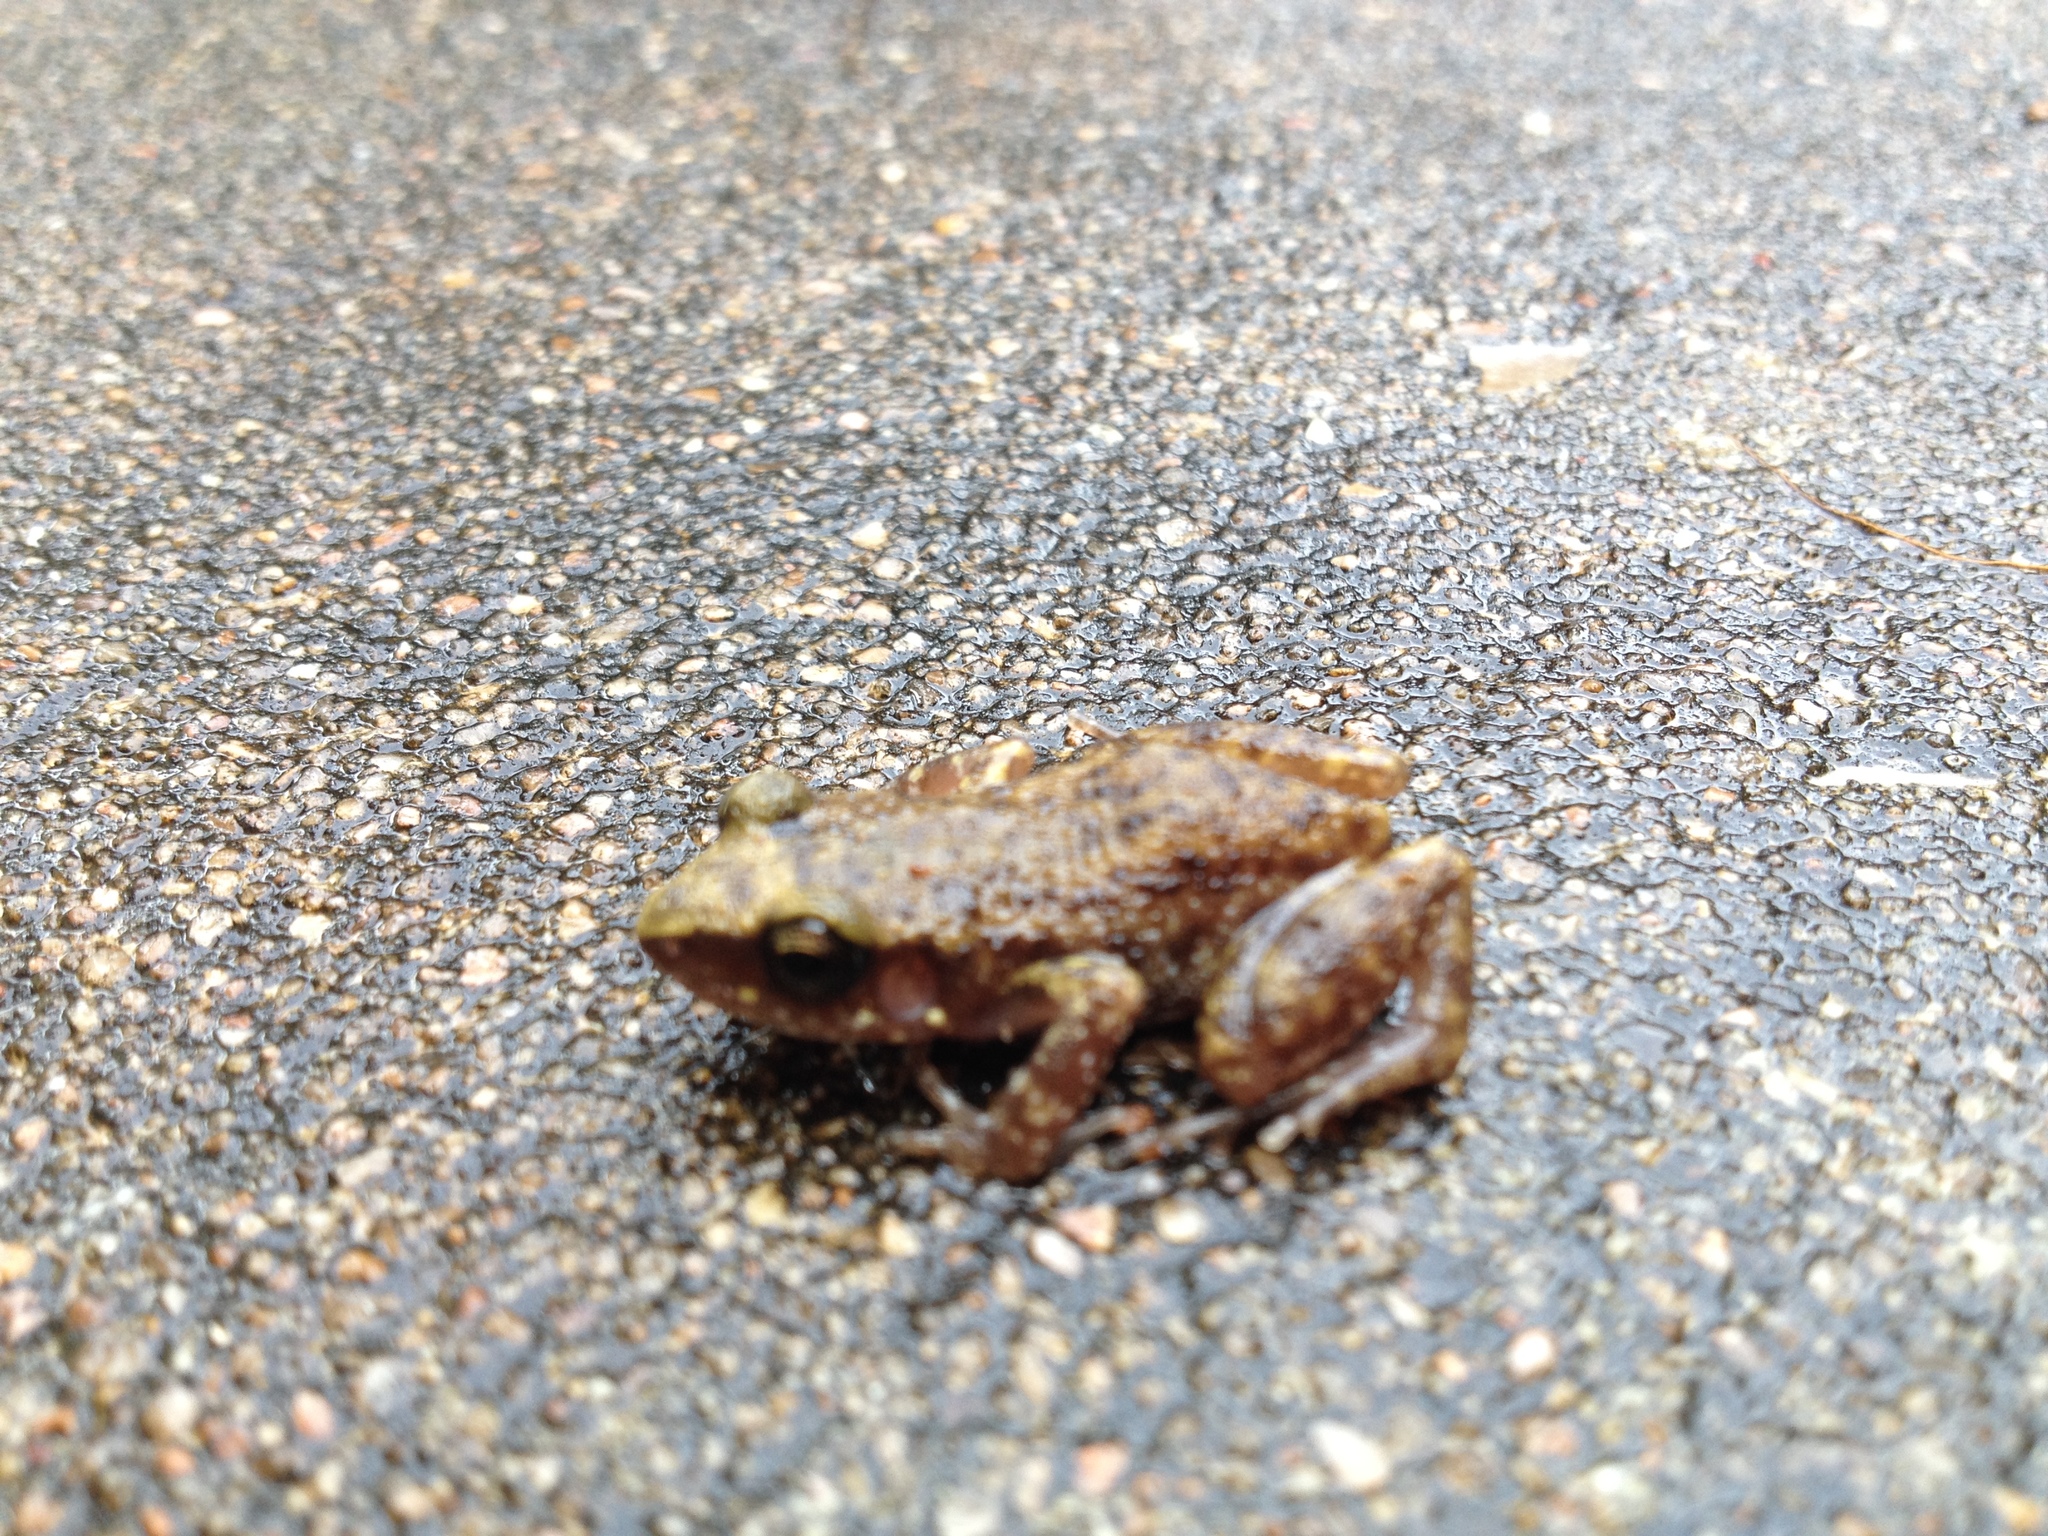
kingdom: Animalia
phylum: Chordata
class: Amphibia
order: Anura
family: Eleutherodactylidae
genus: Eleutherodactylus
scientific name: Eleutherodactylus marnockii
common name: Cliff chirping frog
